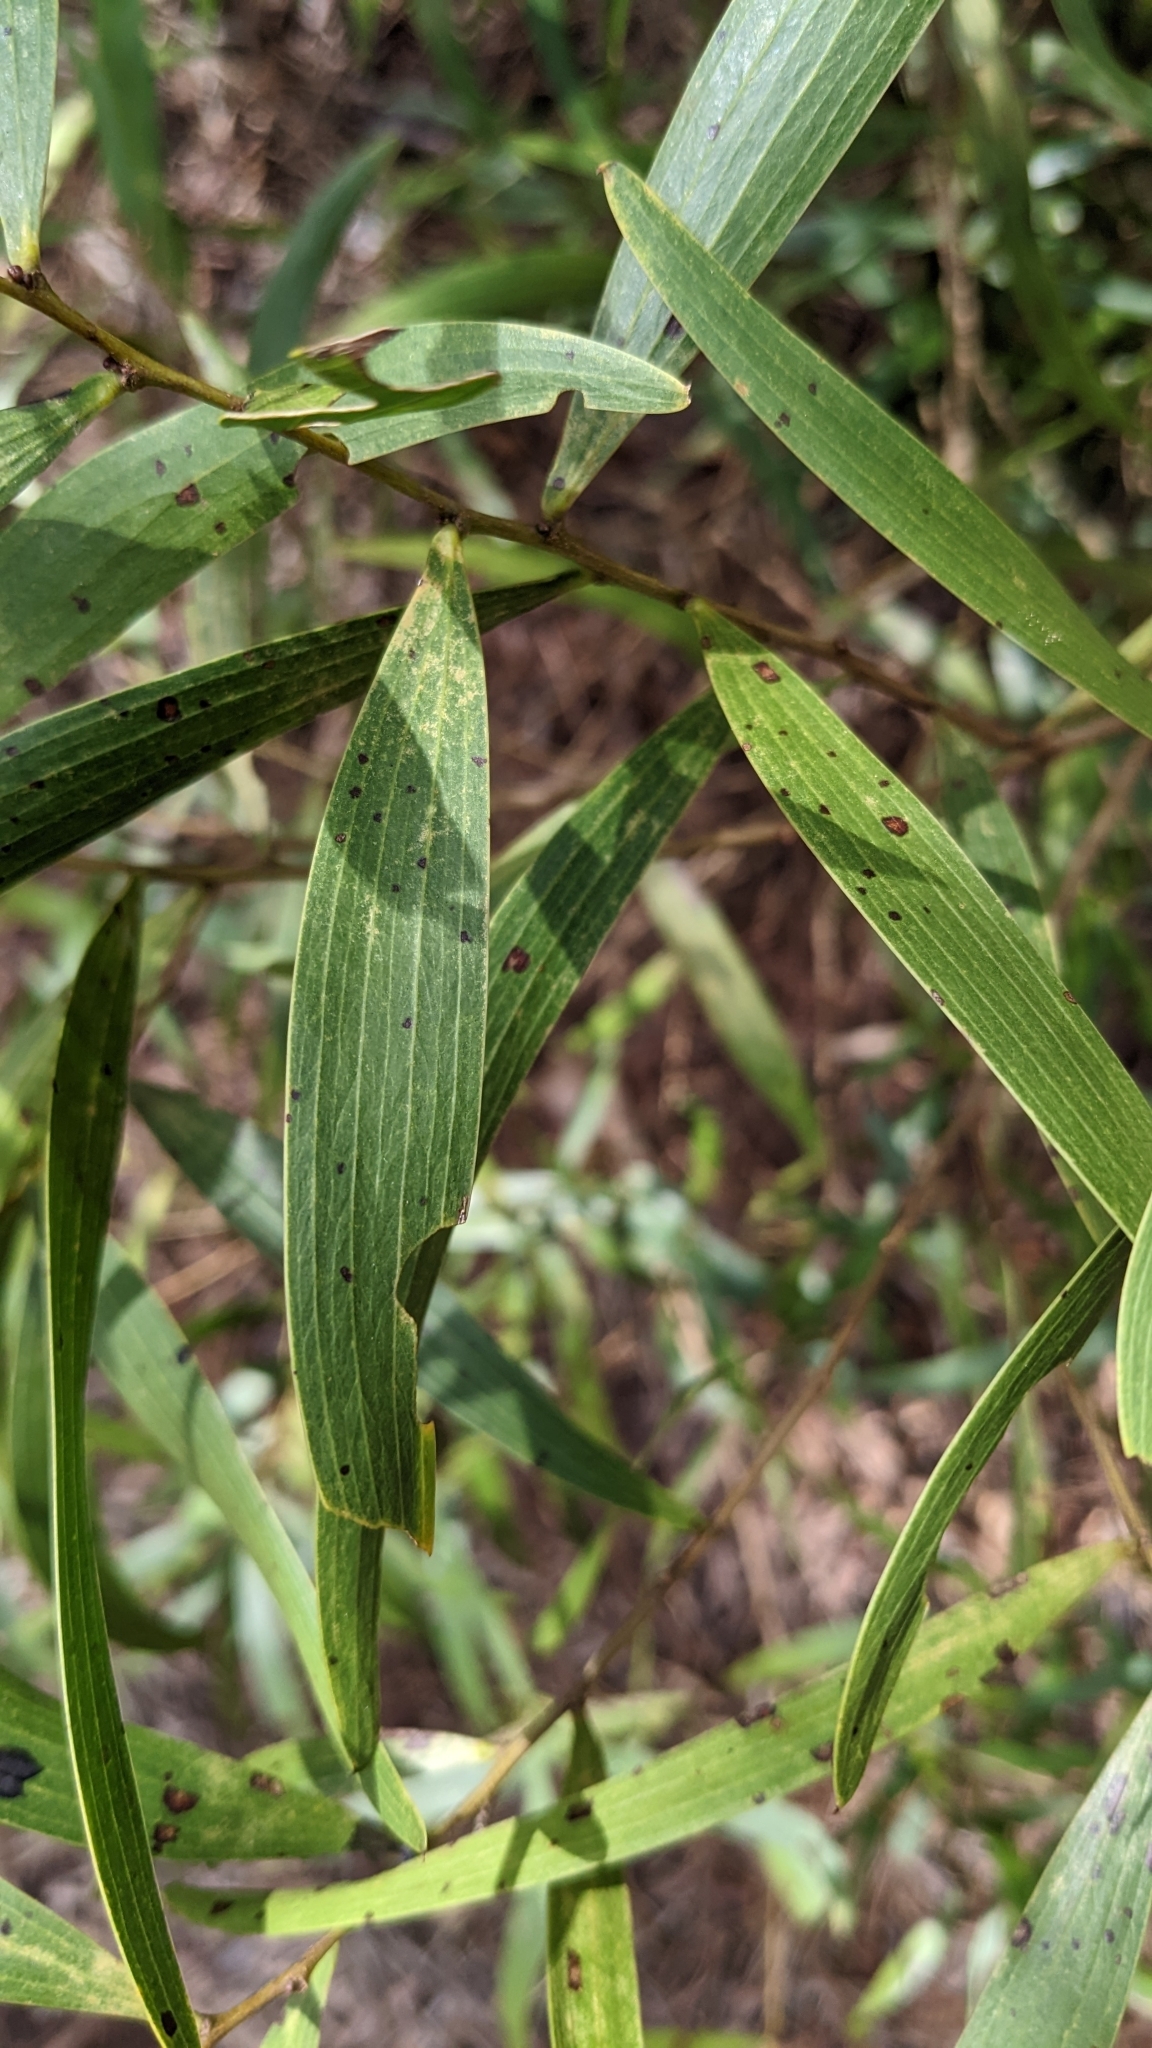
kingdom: Plantae
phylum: Tracheophyta
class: Magnoliopsida
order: Fabales
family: Fabaceae
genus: Acacia
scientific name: Acacia confusa
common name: Formosan koa
